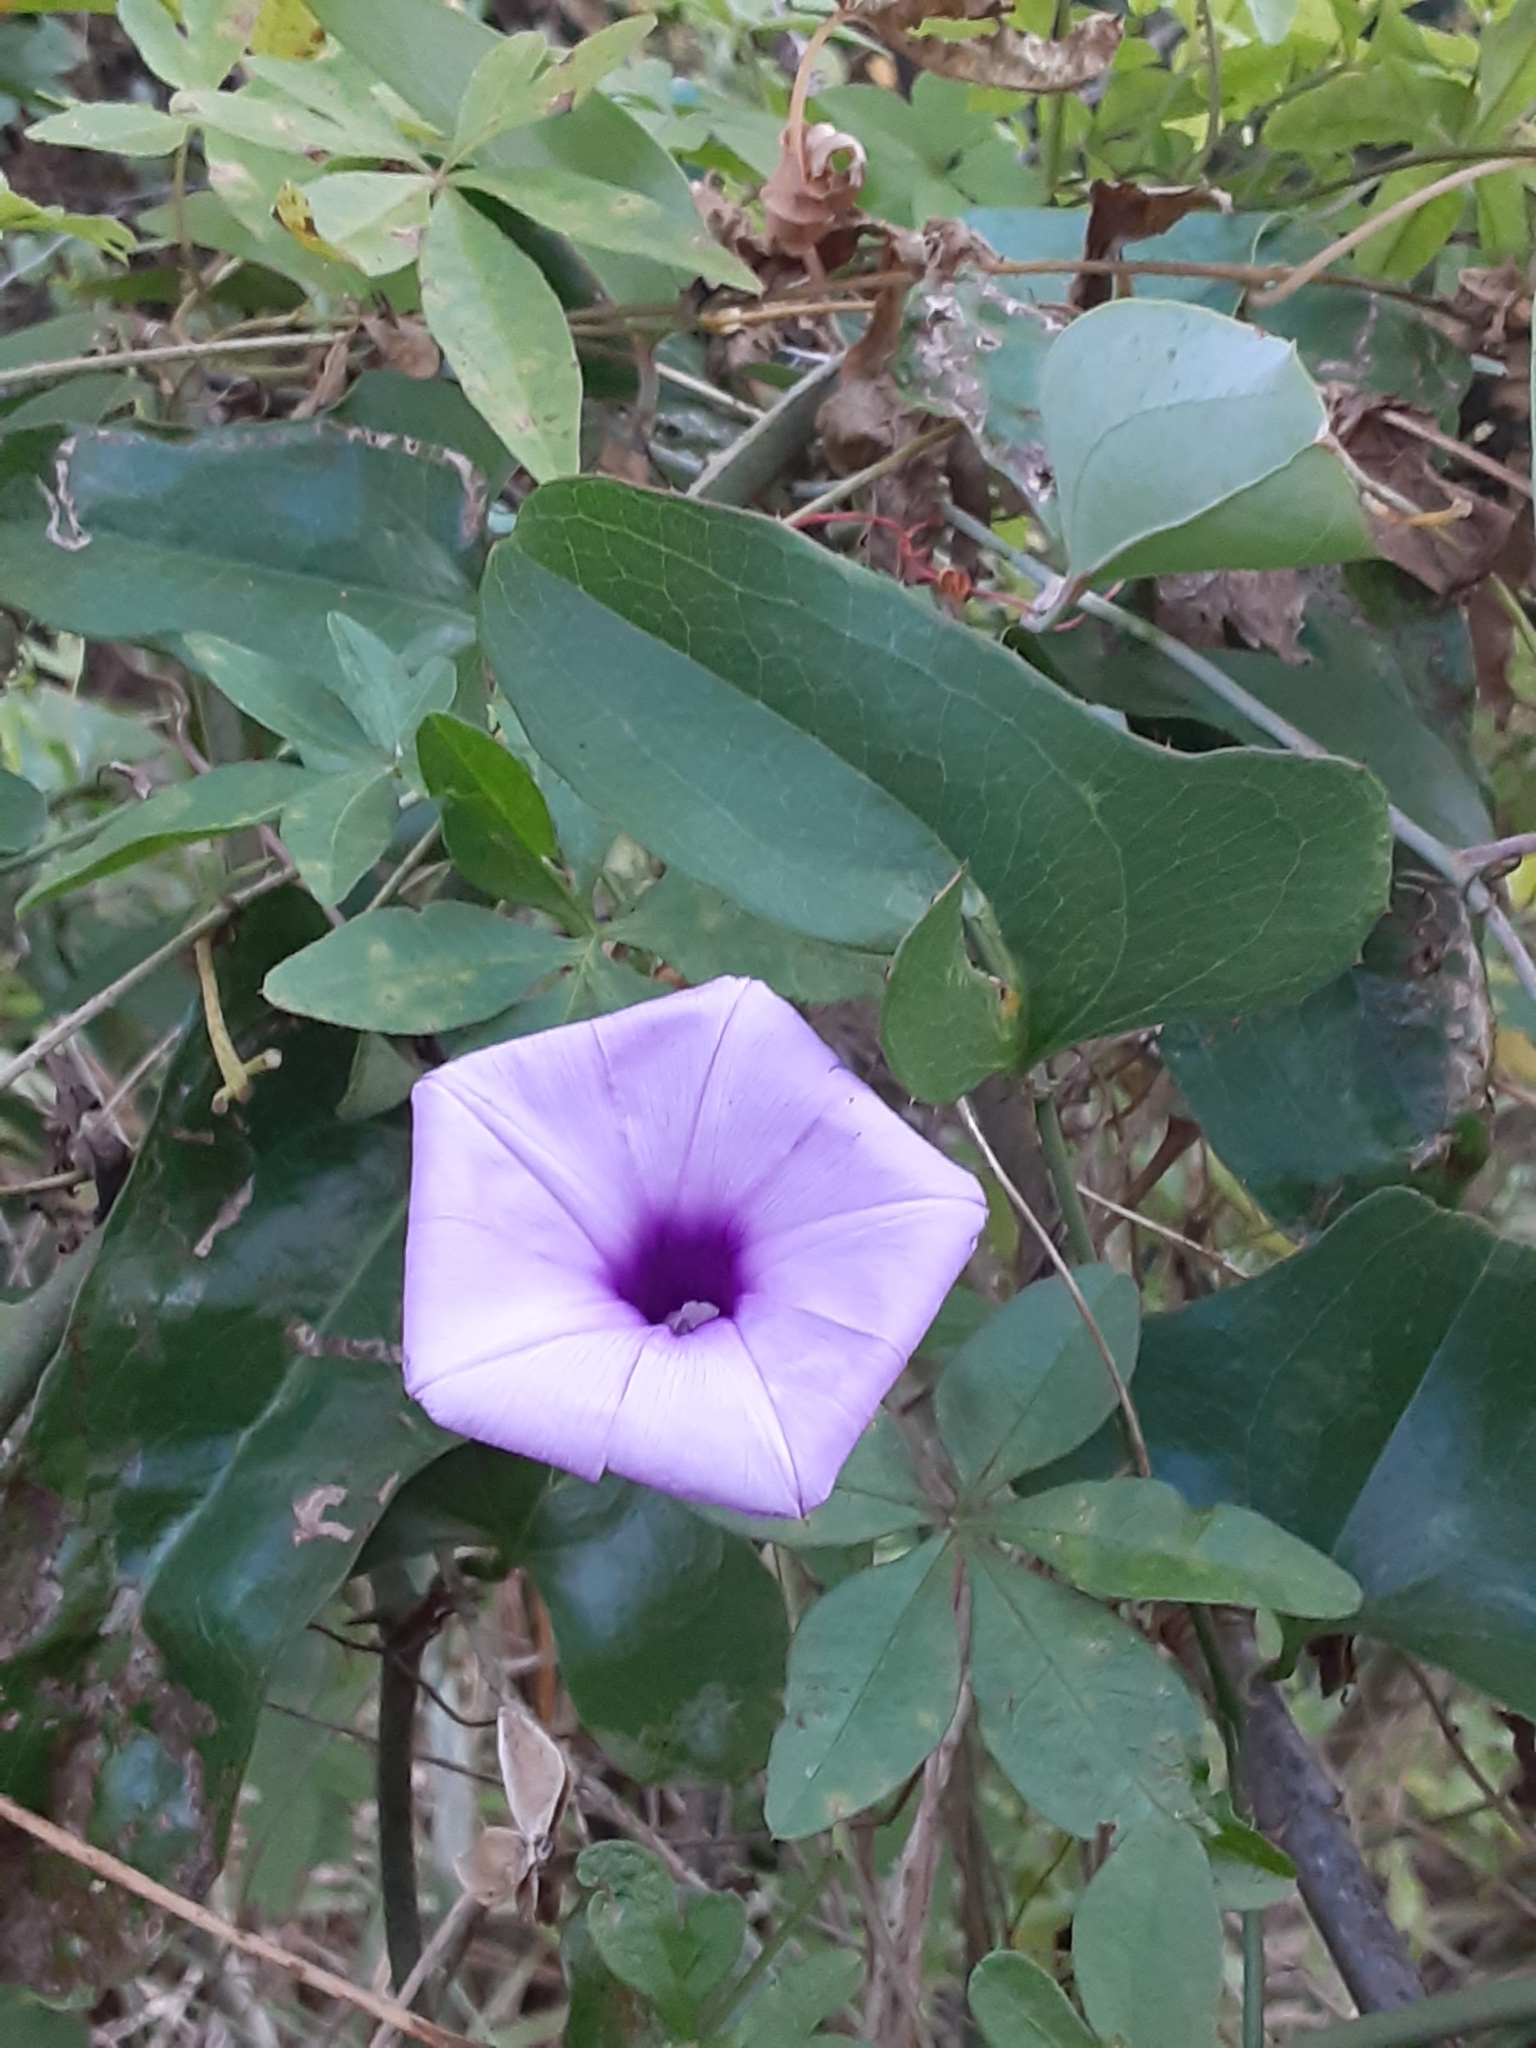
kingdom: Plantae
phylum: Tracheophyta
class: Magnoliopsida
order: Solanales
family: Convolvulaceae
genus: Ipomoea
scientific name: Ipomoea cairica
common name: Mile a minute vine
